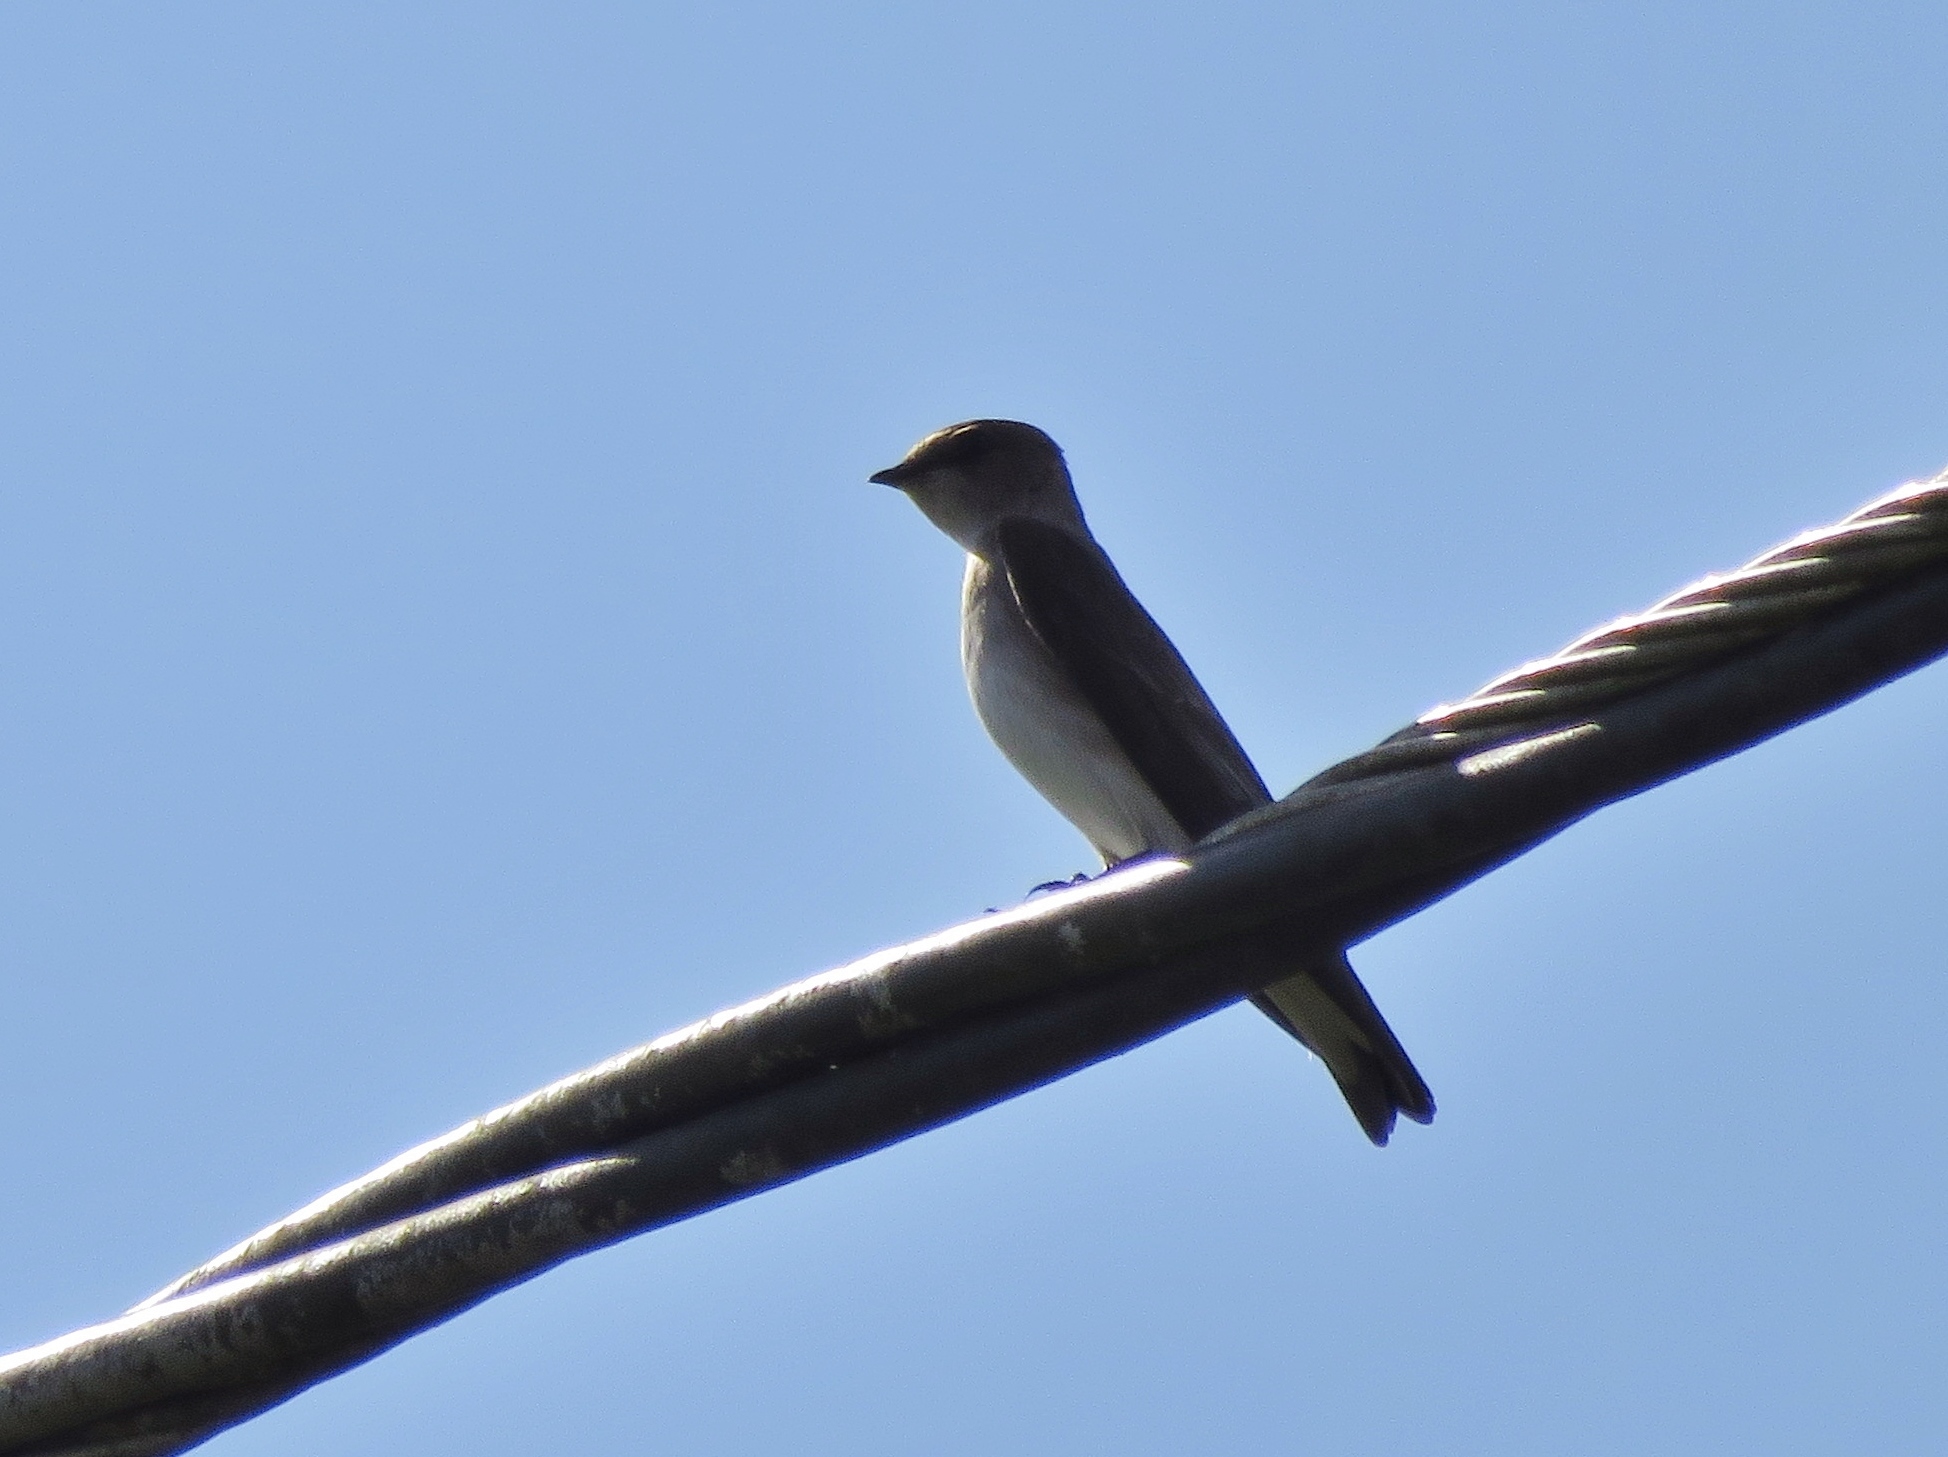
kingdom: Animalia
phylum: Chordata
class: Aves
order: Passeriformes
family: Hirundinidae
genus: Stelgidopteryx
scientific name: Stelgidopteryx serripennis
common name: Northern rough-winged swallow
